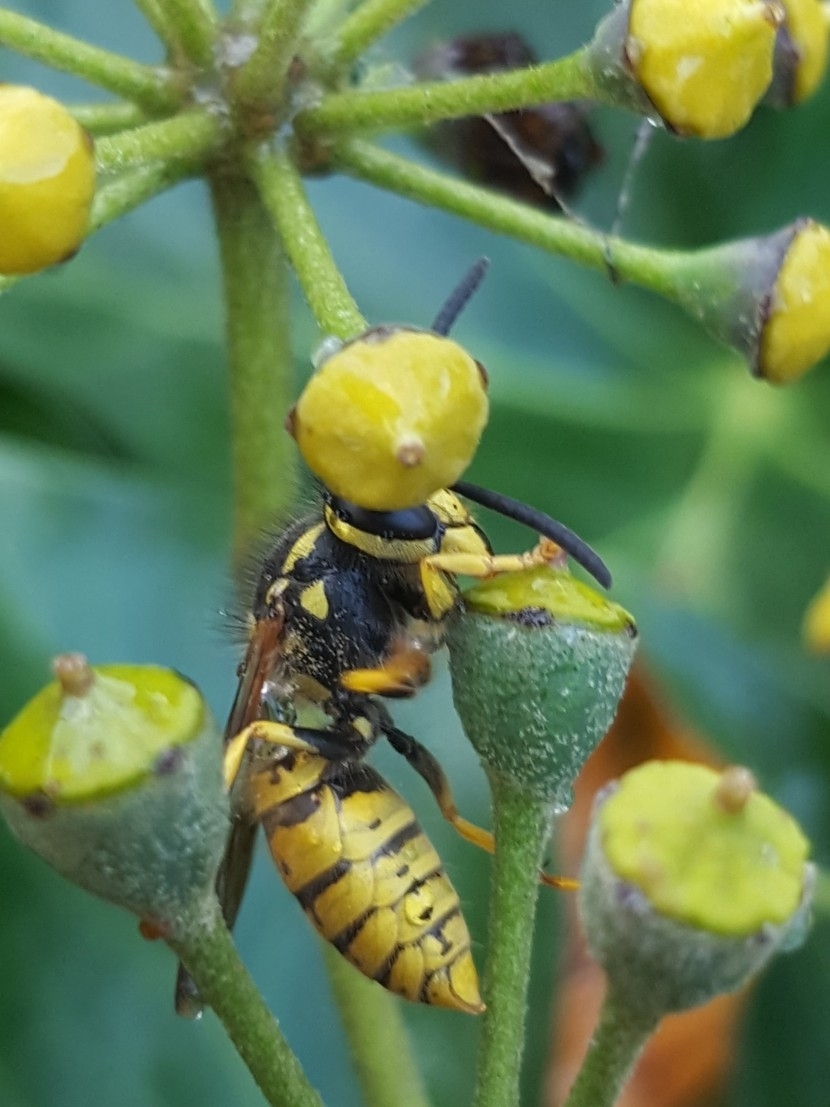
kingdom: Animalia
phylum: Arthropoda
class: Insecta
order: Hymenoptera
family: Vespidae
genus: Vespula
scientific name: Vespula germanica
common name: German wasp
